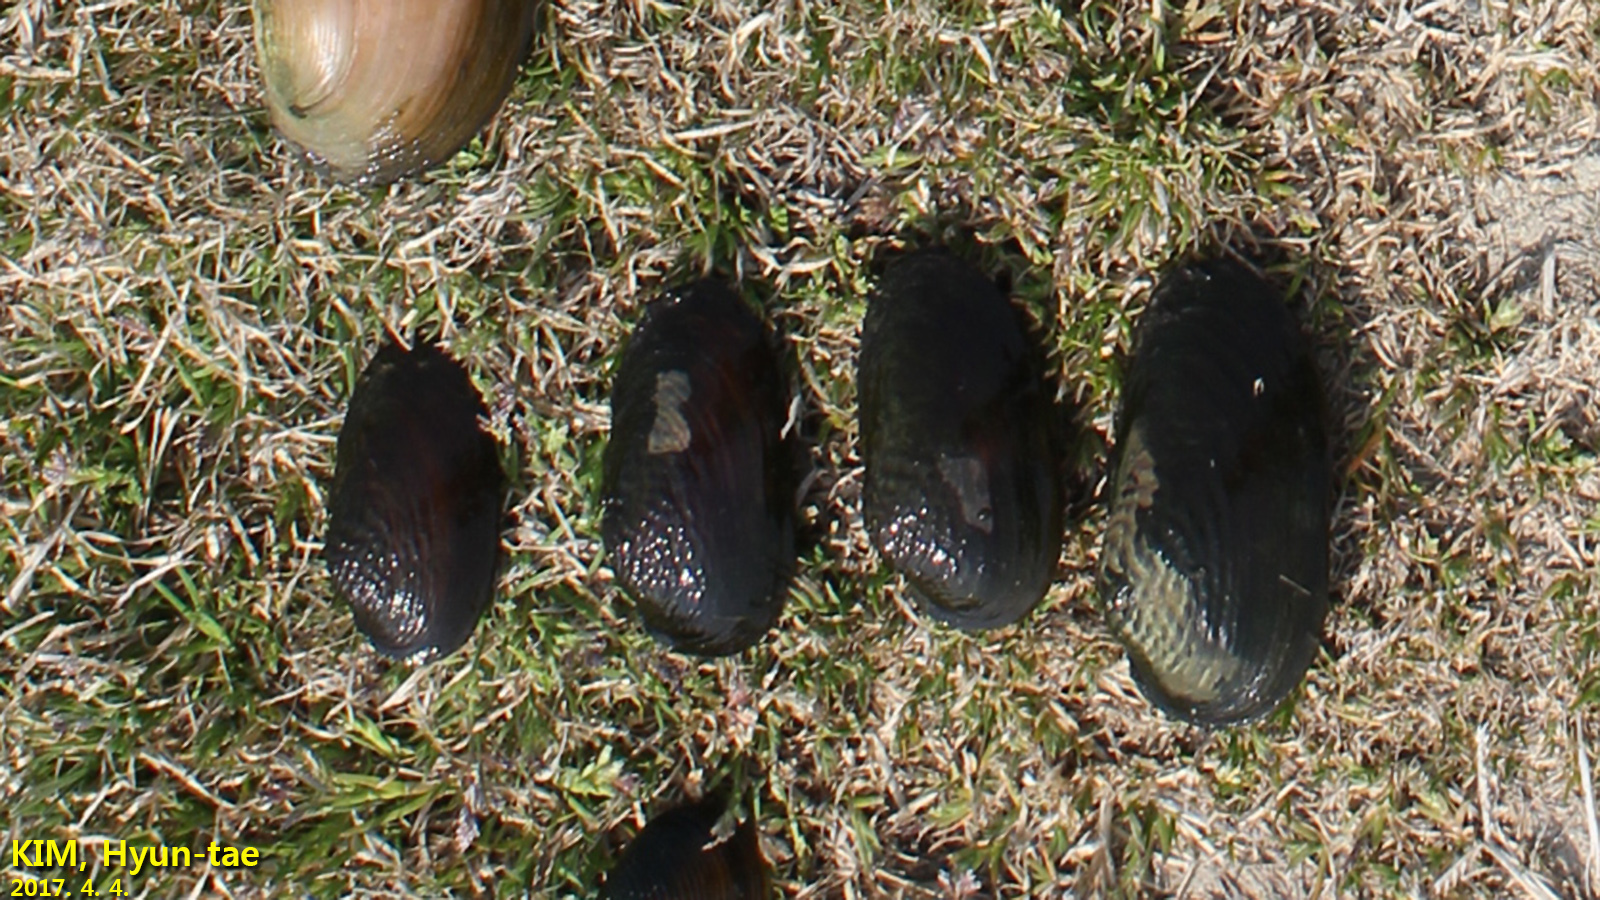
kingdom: Animalia
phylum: Mollusca
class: Bivalvia
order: Unionida
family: Unionidae
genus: Nodularia
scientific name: Nodularia douglasiae
